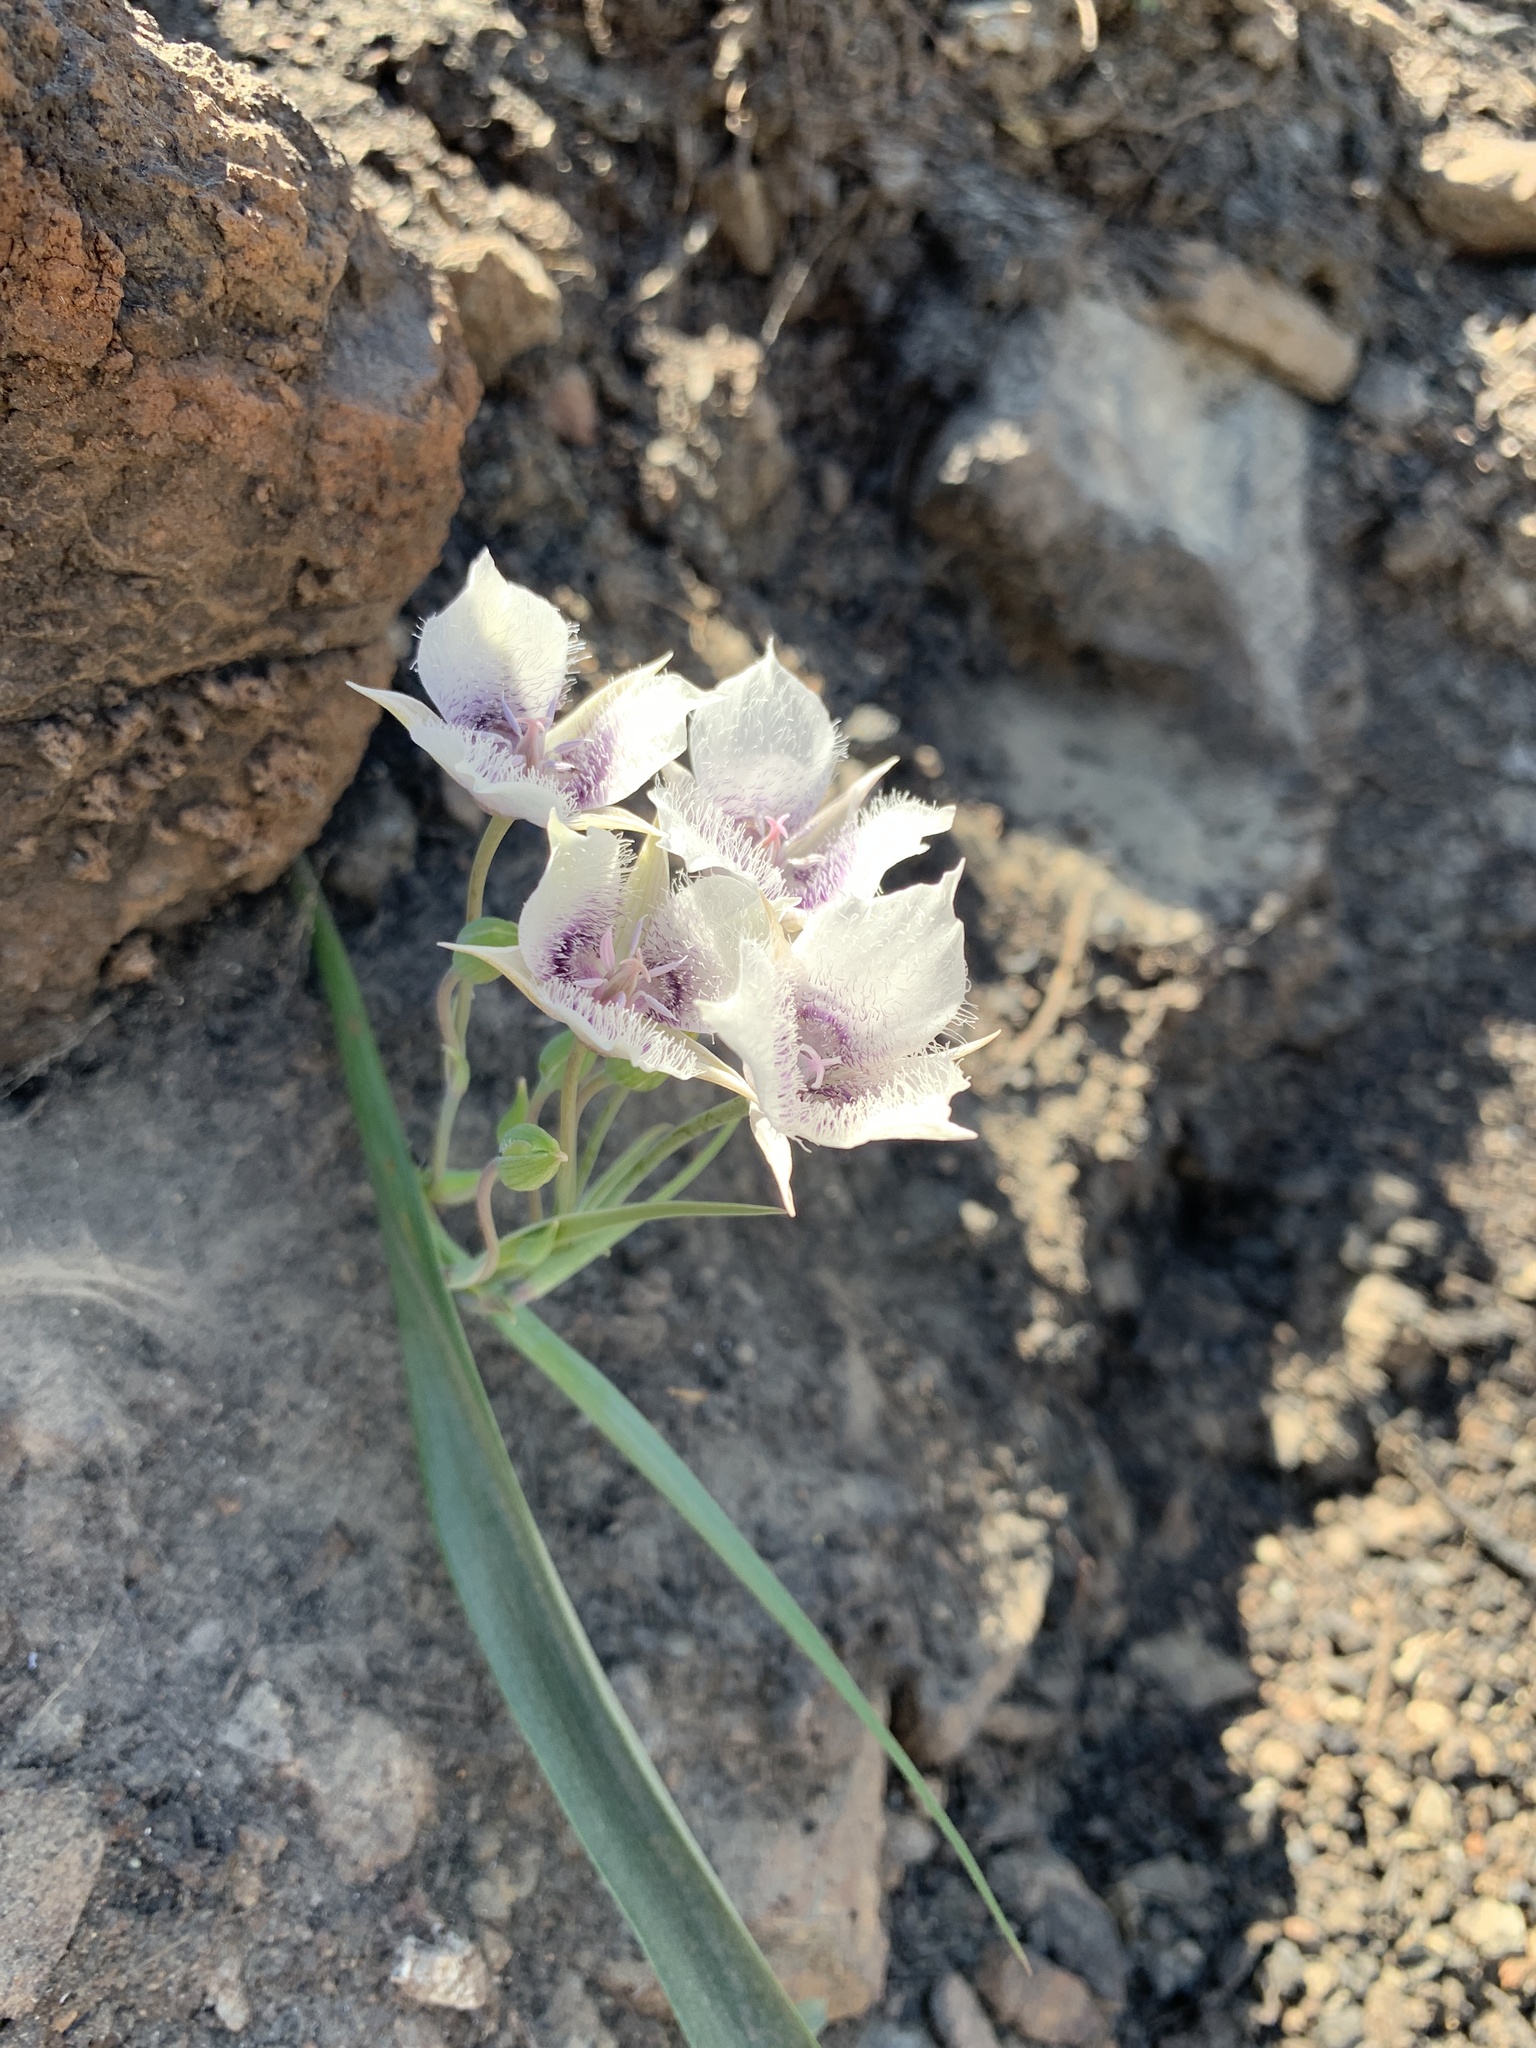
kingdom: Plantae
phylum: Tracheophyta
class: Liliopsida
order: Liliales
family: Liliaceae
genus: Calochortus
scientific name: Calochortus tolmiei
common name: Pussy-ears
